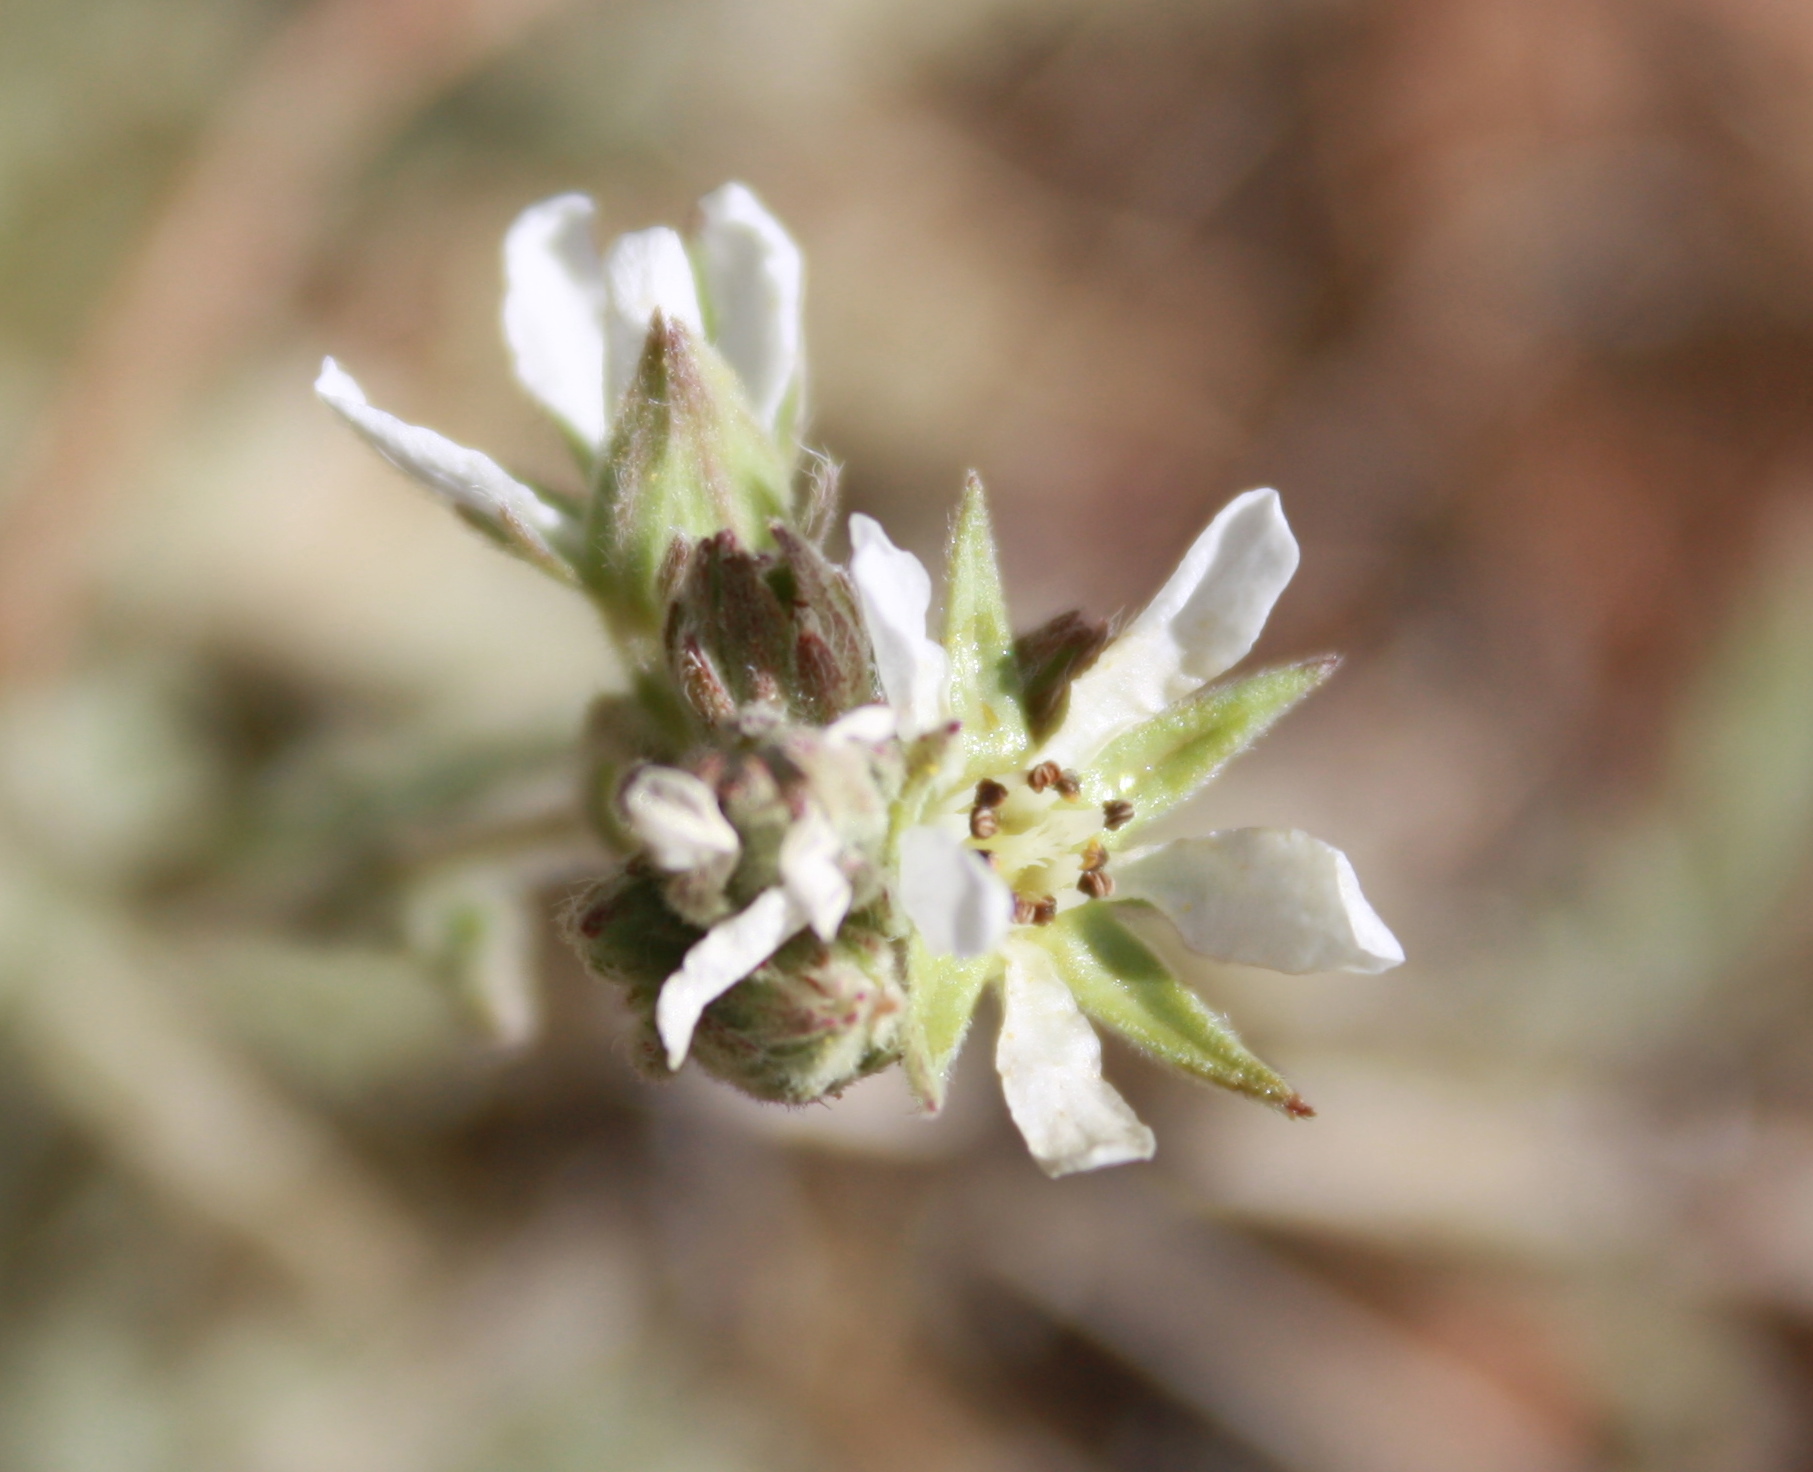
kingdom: Plantae
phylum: Tracheophyta
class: Magnoliopsida
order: Rosales
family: Rosaceae
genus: Potentilla
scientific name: Potentilla bolanderi
